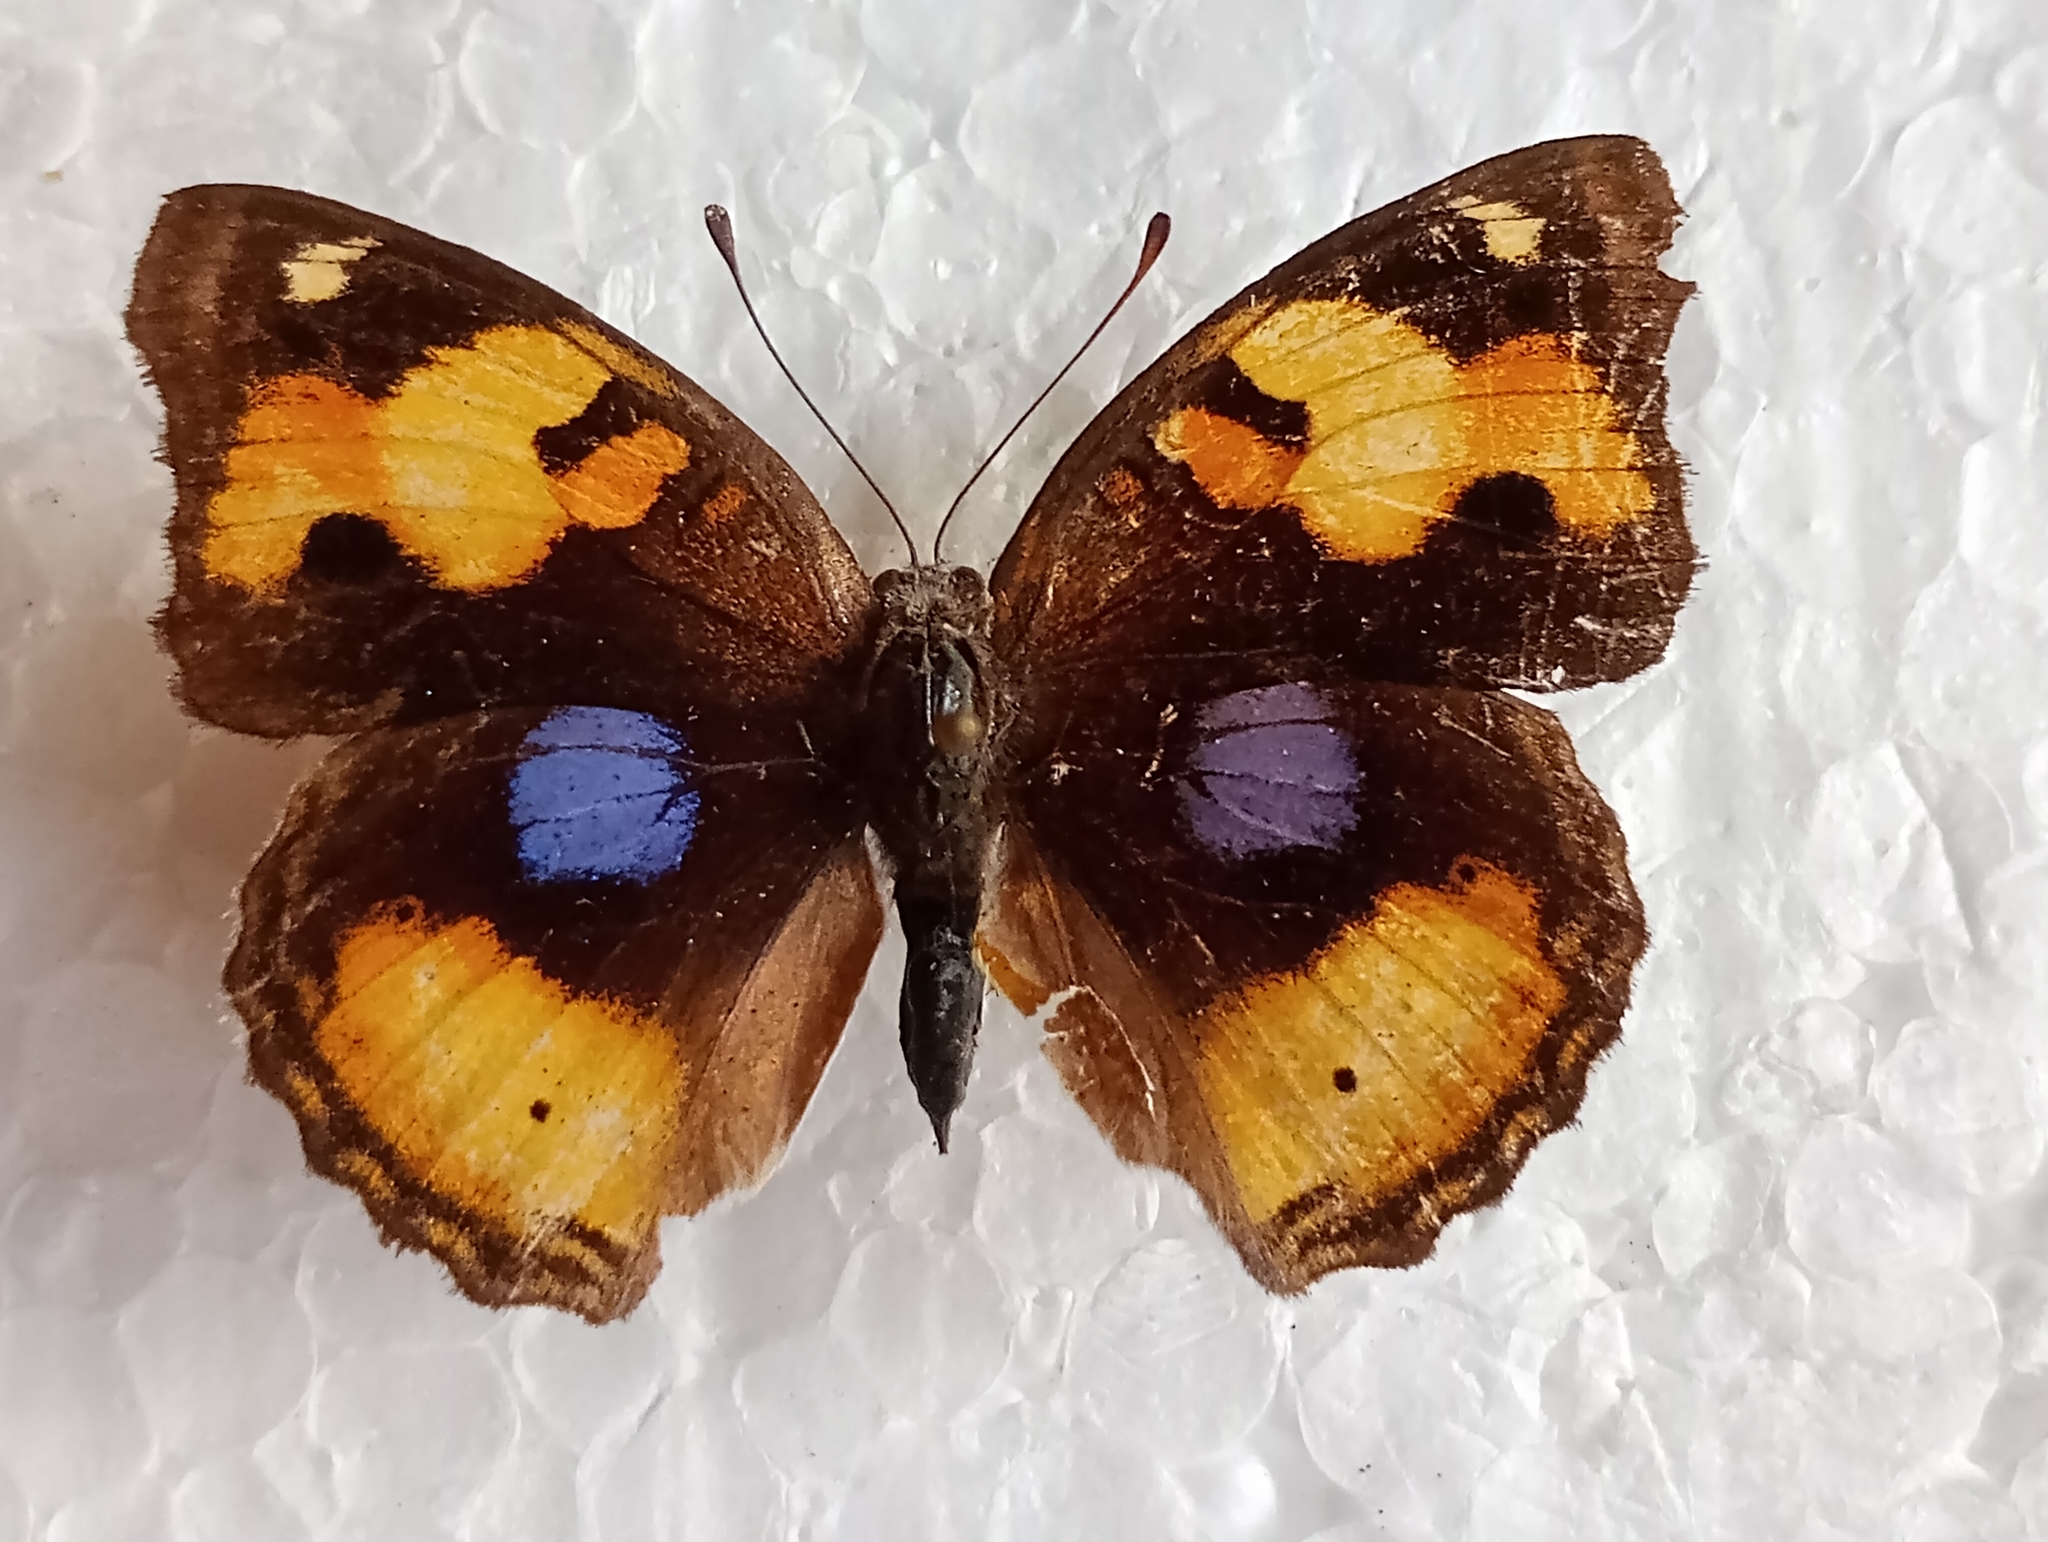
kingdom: Animalia
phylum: Arthropoda
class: Insecta
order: Lepidoptera
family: Nymphalidae
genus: Junonia
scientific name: Junonia hierta
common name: Yellow pansy
